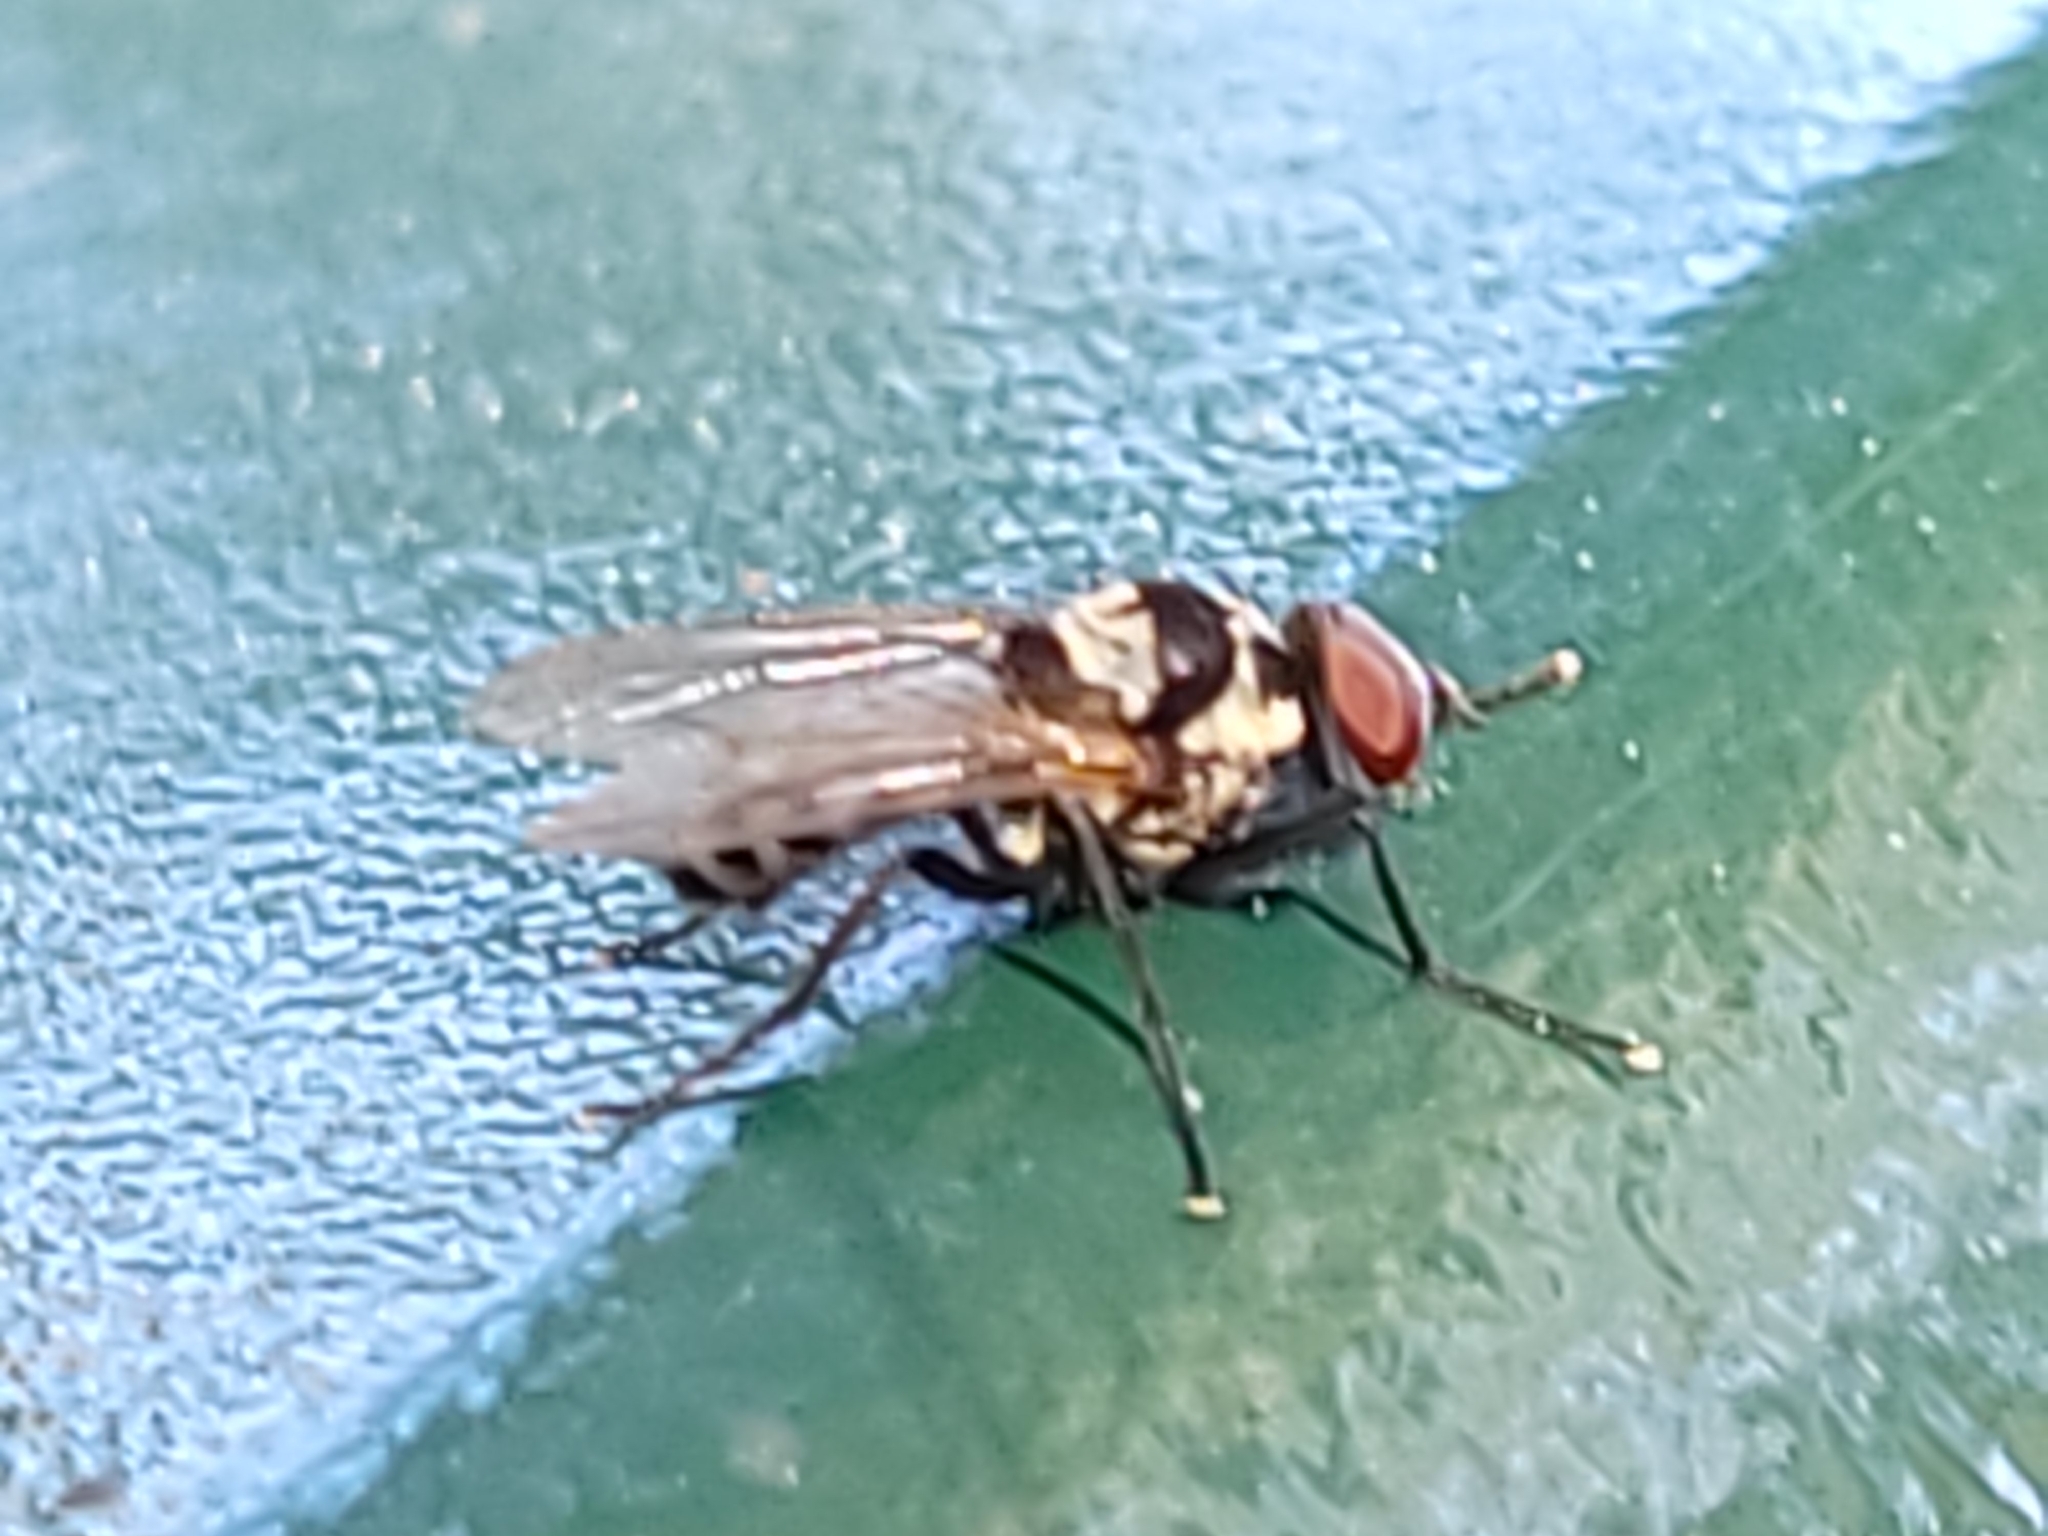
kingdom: Animalia
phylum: Arthropoda
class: Insecta
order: Diptera
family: Anthomyiidae
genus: Anthomyia
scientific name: Anthomyia oculifera
